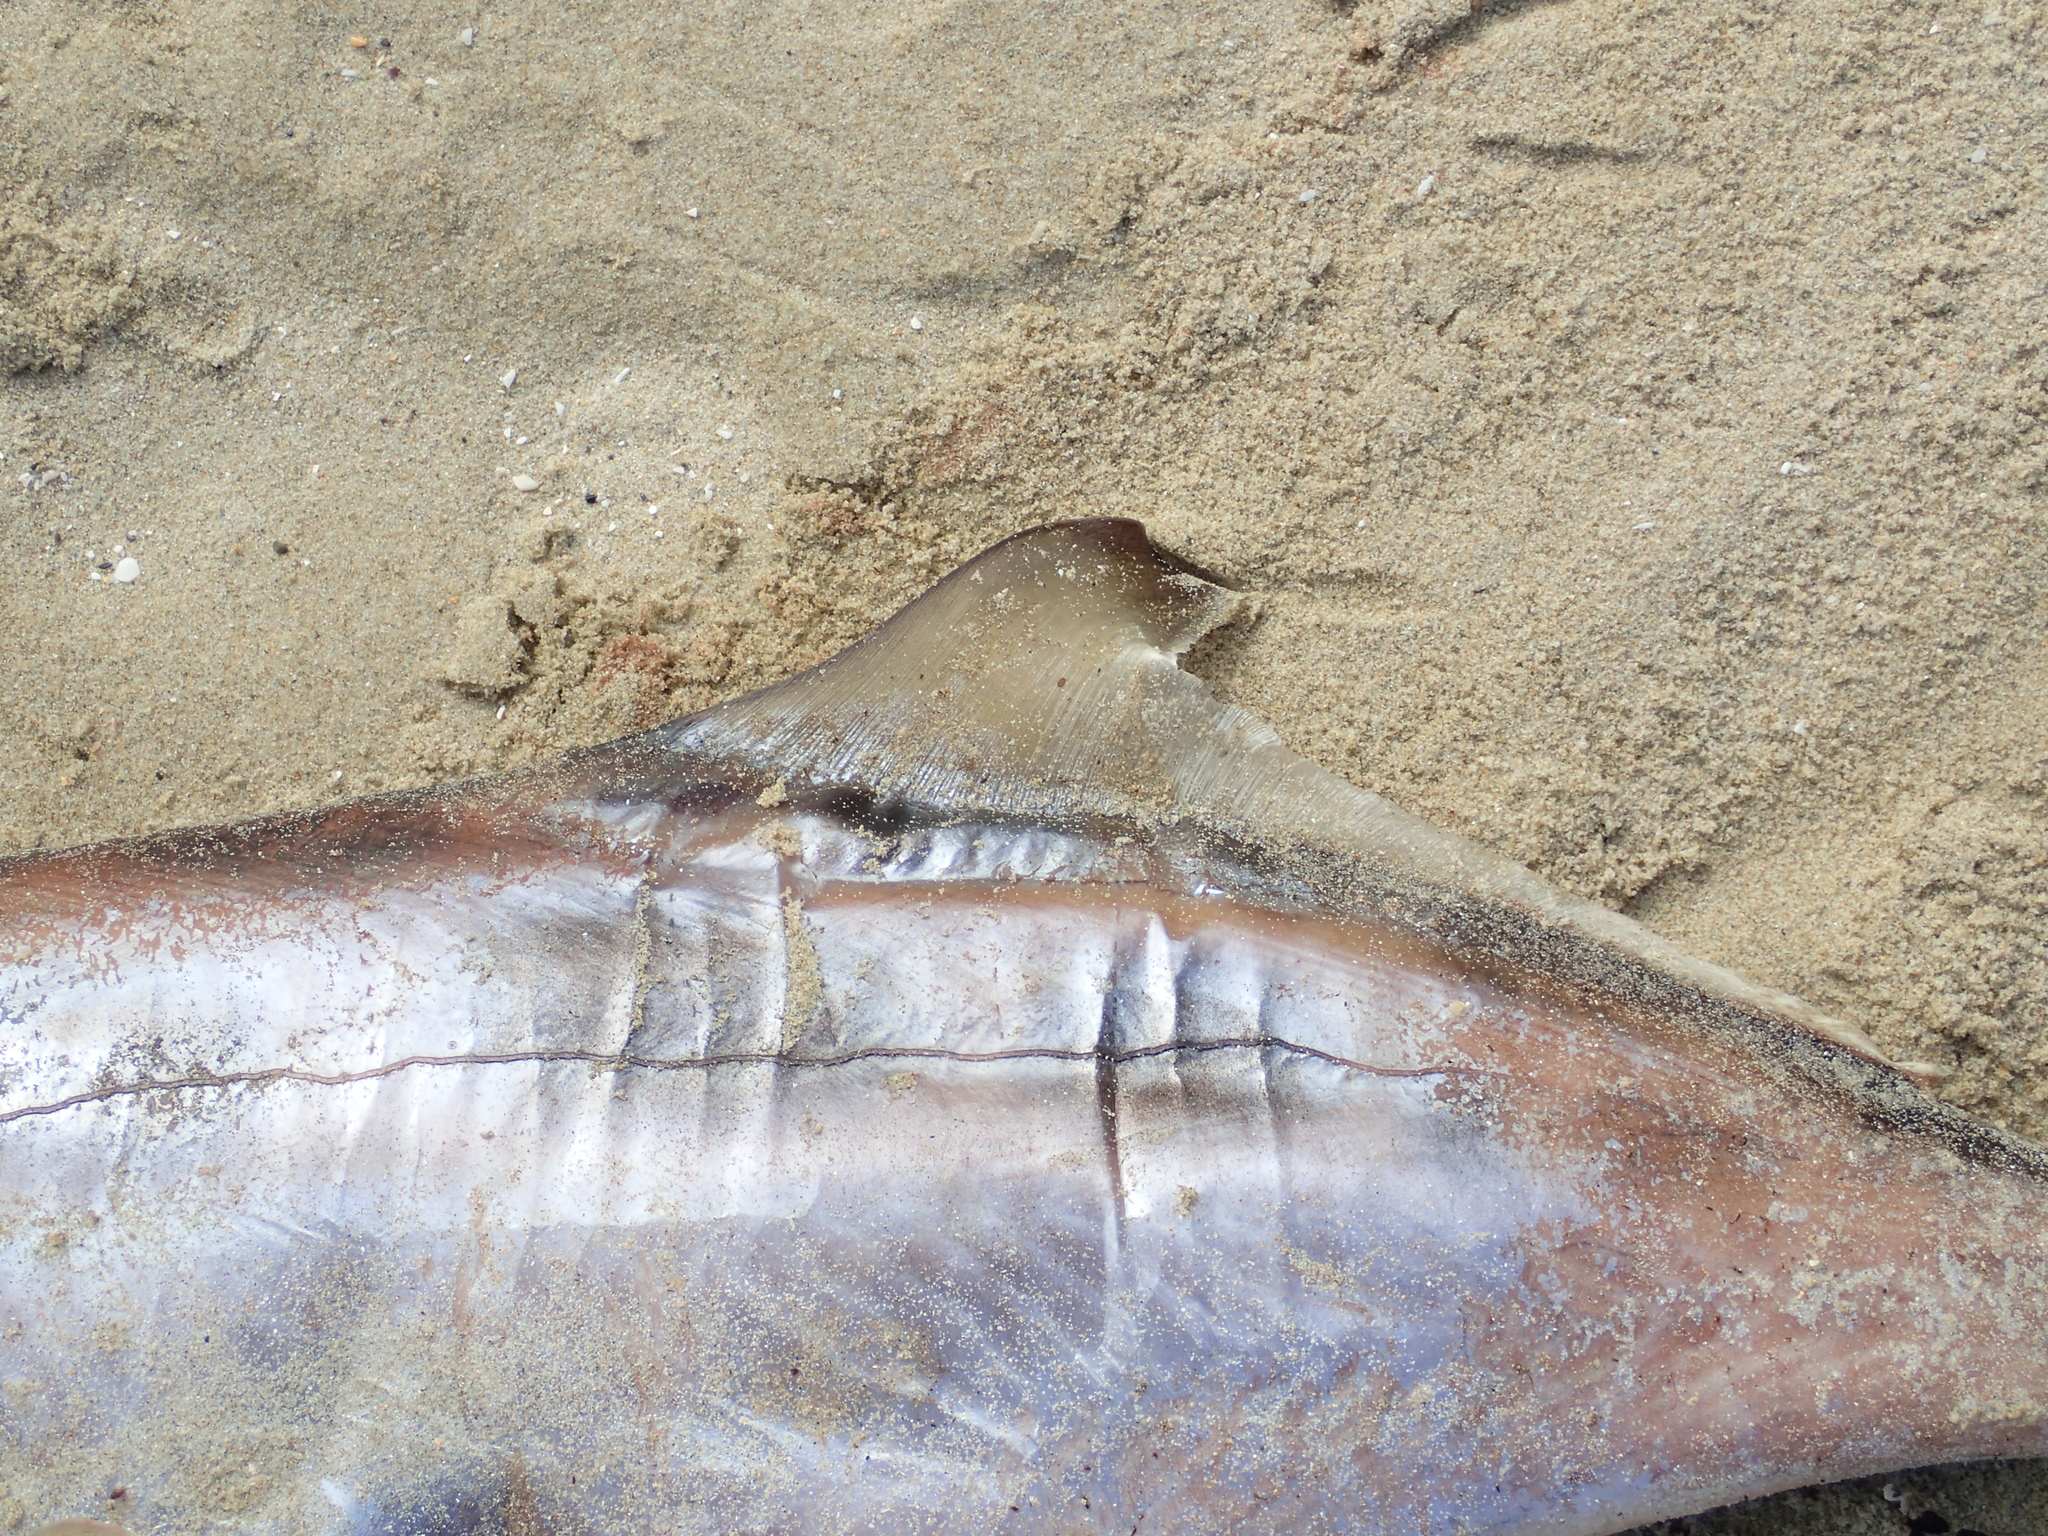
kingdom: Animalia
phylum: Chordata
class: Holocephali
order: Chimaeriformes
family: Callorhinchidae
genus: Callorhinchus
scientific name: Callorhinchus milii
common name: Elephant fish
